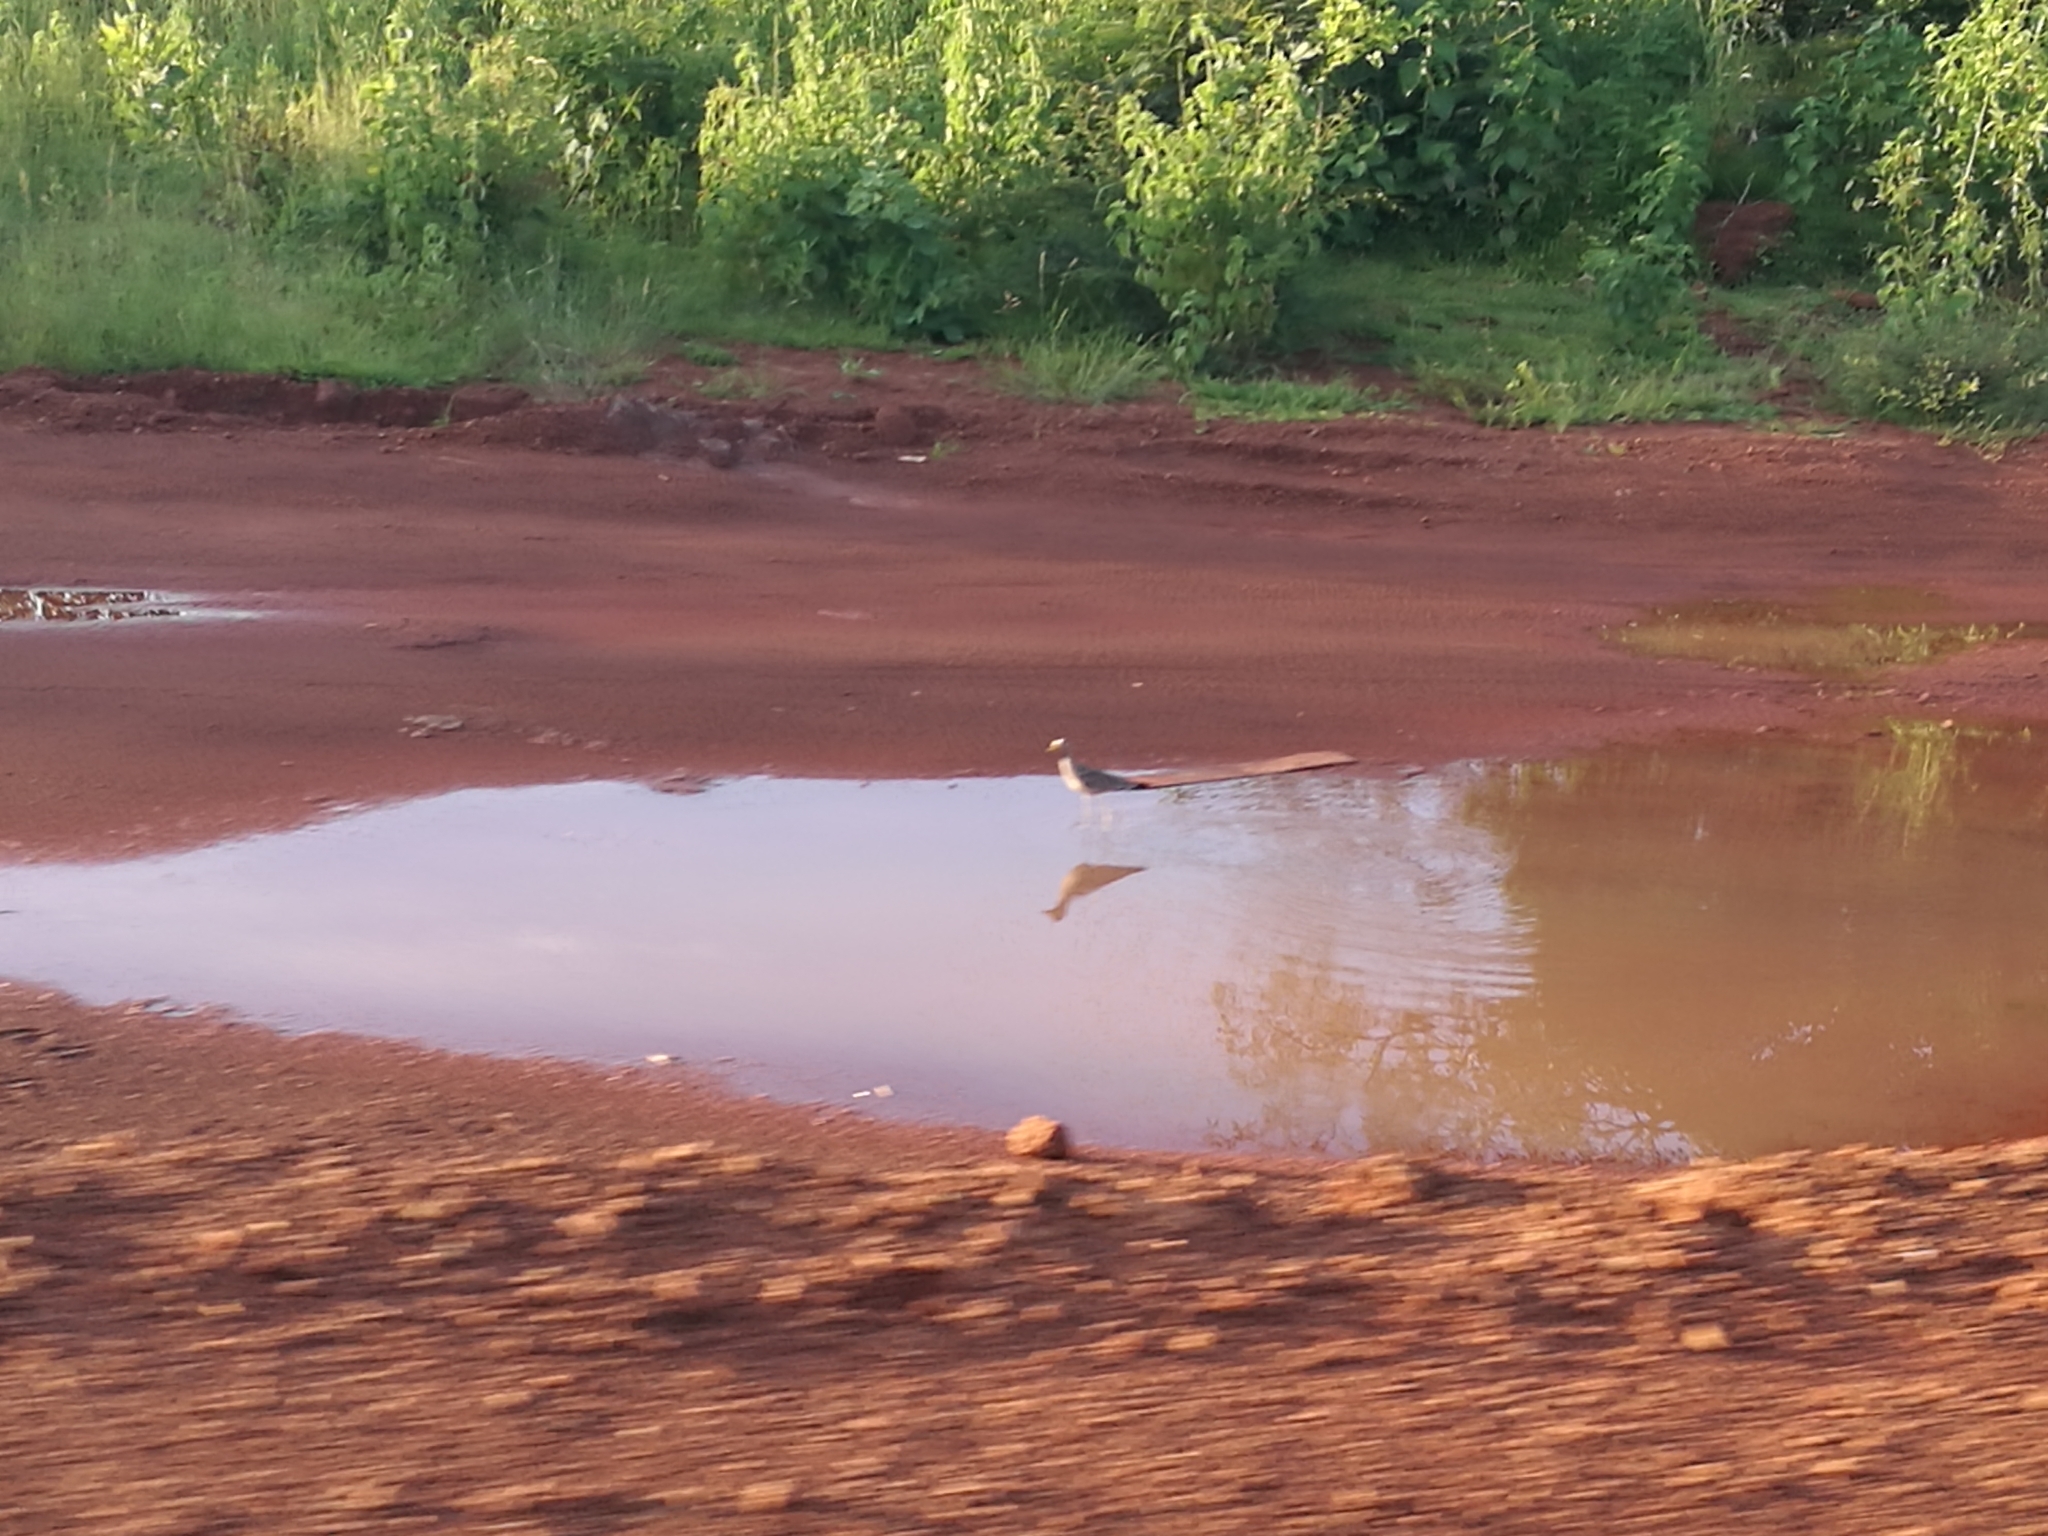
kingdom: Animalia
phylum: Chordata
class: Aves
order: Charadriiformes
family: Charadriidae
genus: Vanellus
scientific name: Vanellus senegallus
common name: African wattled lapwing
